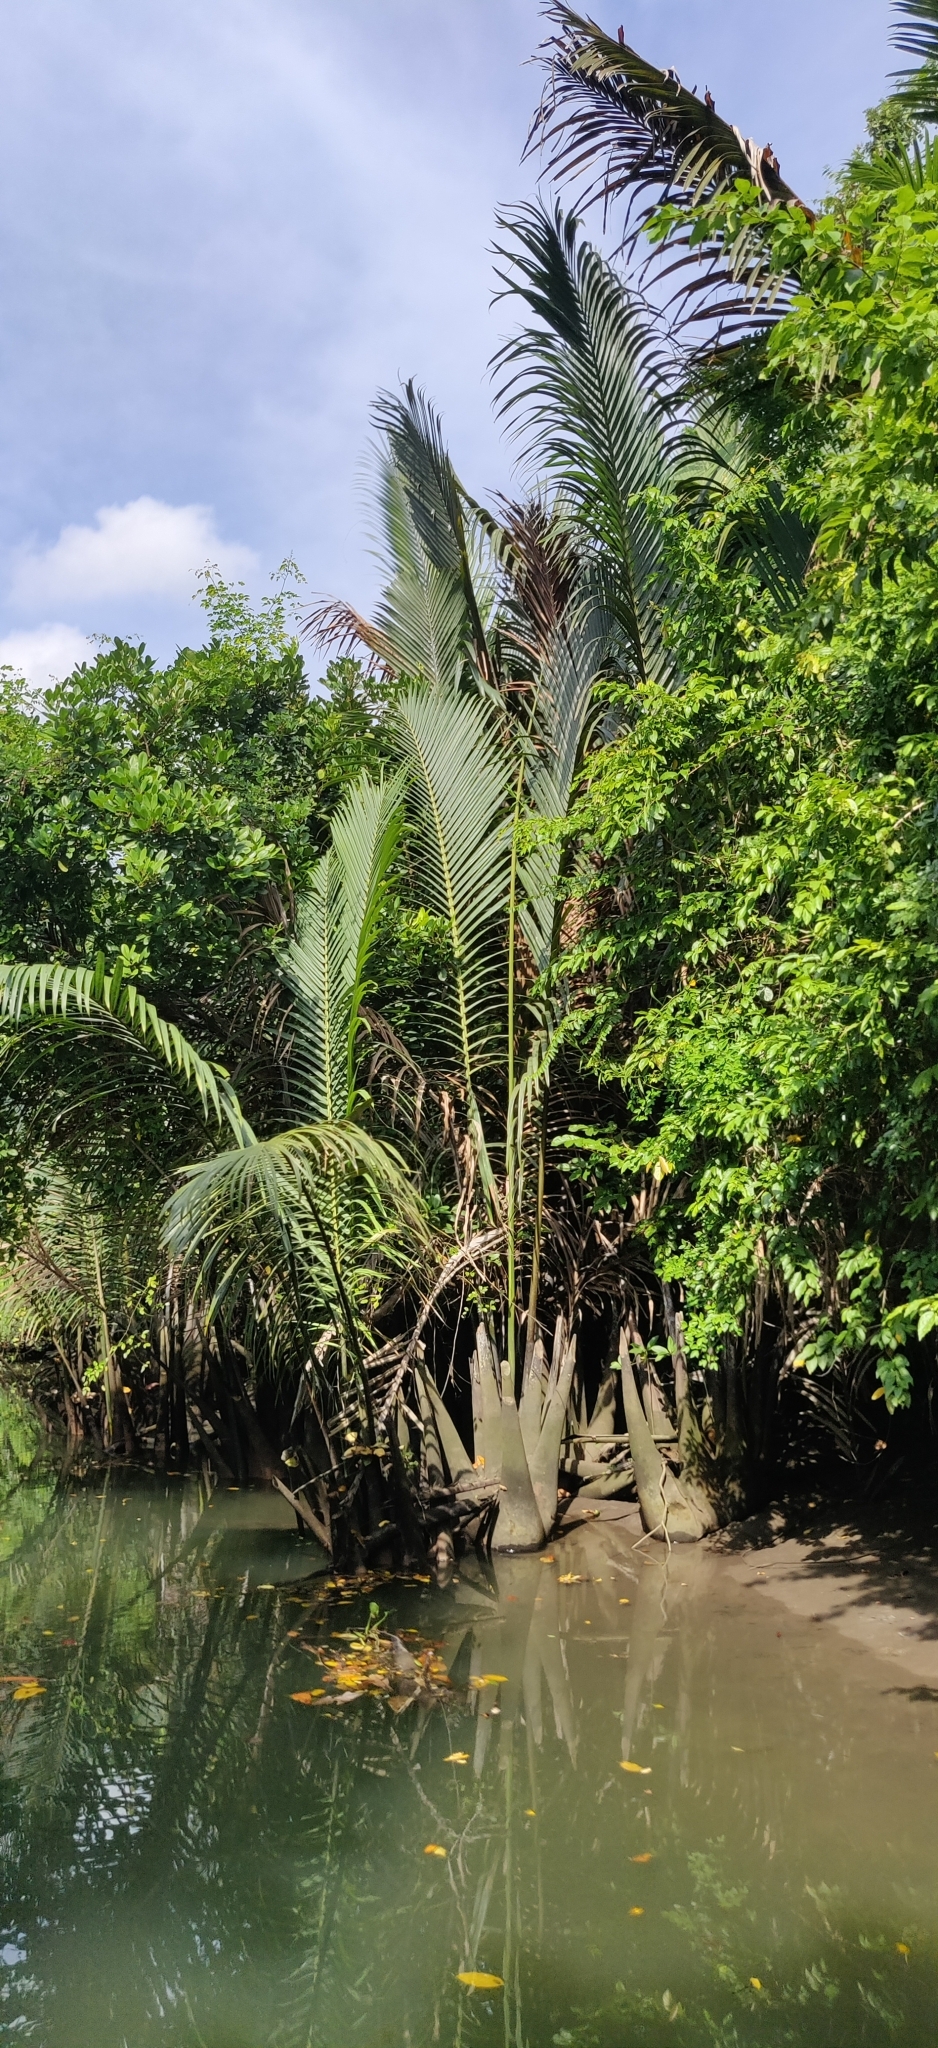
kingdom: Plantae
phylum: Tracheophyta
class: Liliopsida
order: Arecales
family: Arecaceae
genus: Nypa
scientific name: Nypa fruticans
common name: Mangrove palm
